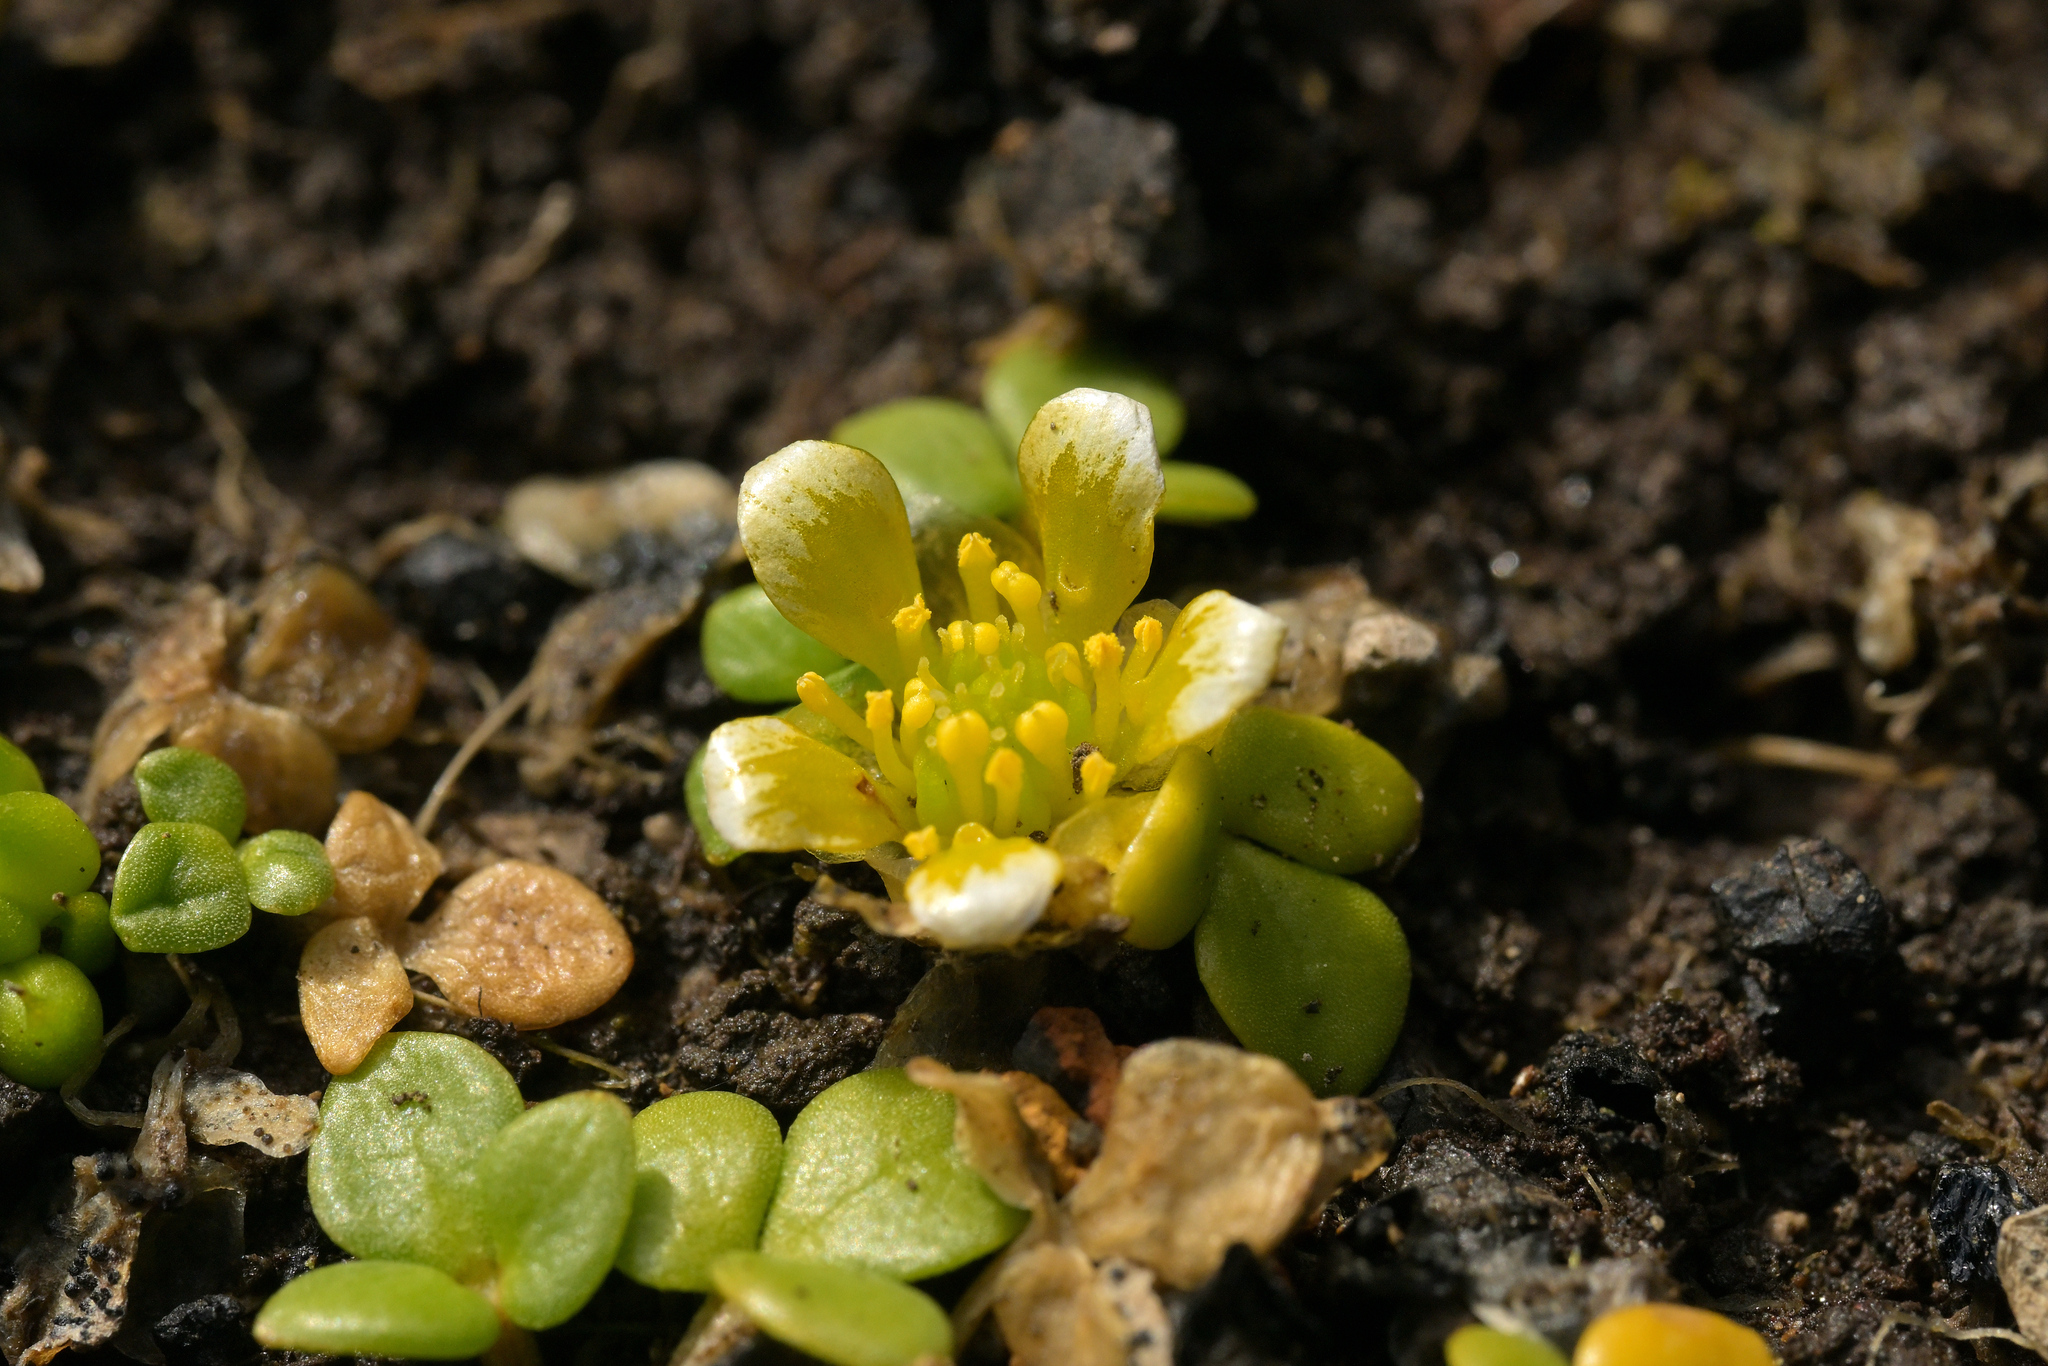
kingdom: Plantae
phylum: Tracheophyta
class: Magnoliopsida
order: Ranunculales
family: Ranunculaceae
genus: Ranunculus
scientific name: Ranunculus acaulis
